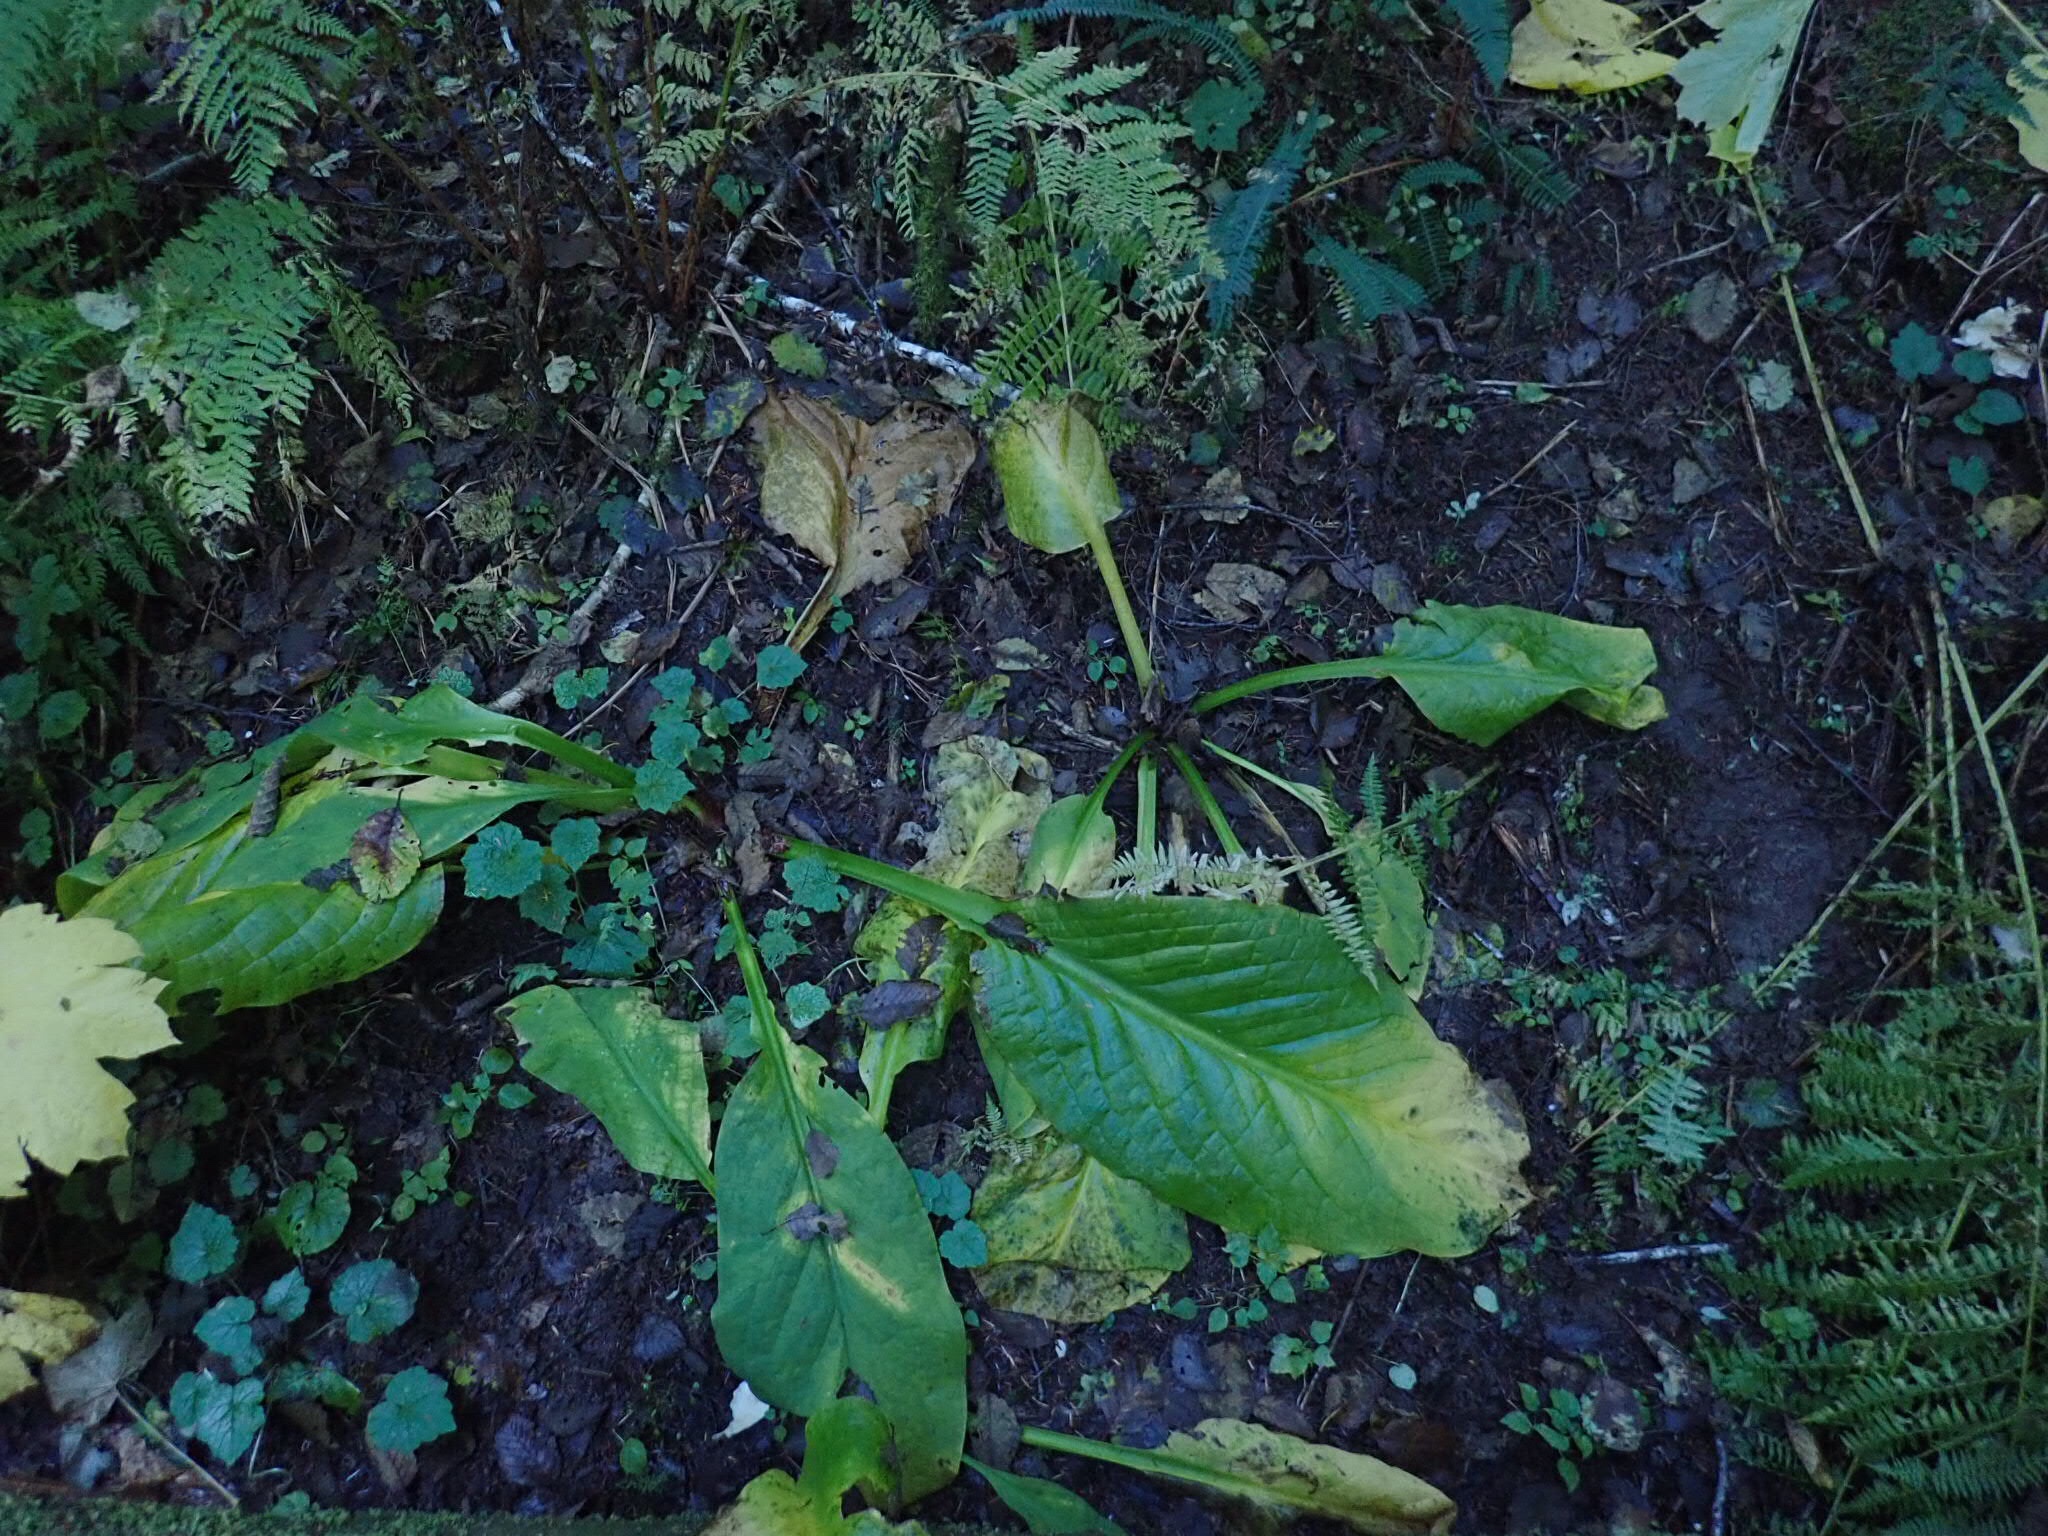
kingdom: Plantae
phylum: Tracheophyta
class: Liliopsida
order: Alismatales
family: Araceae
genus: Lysichiton
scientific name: Lysichiton americanus
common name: American skunk cabbage
